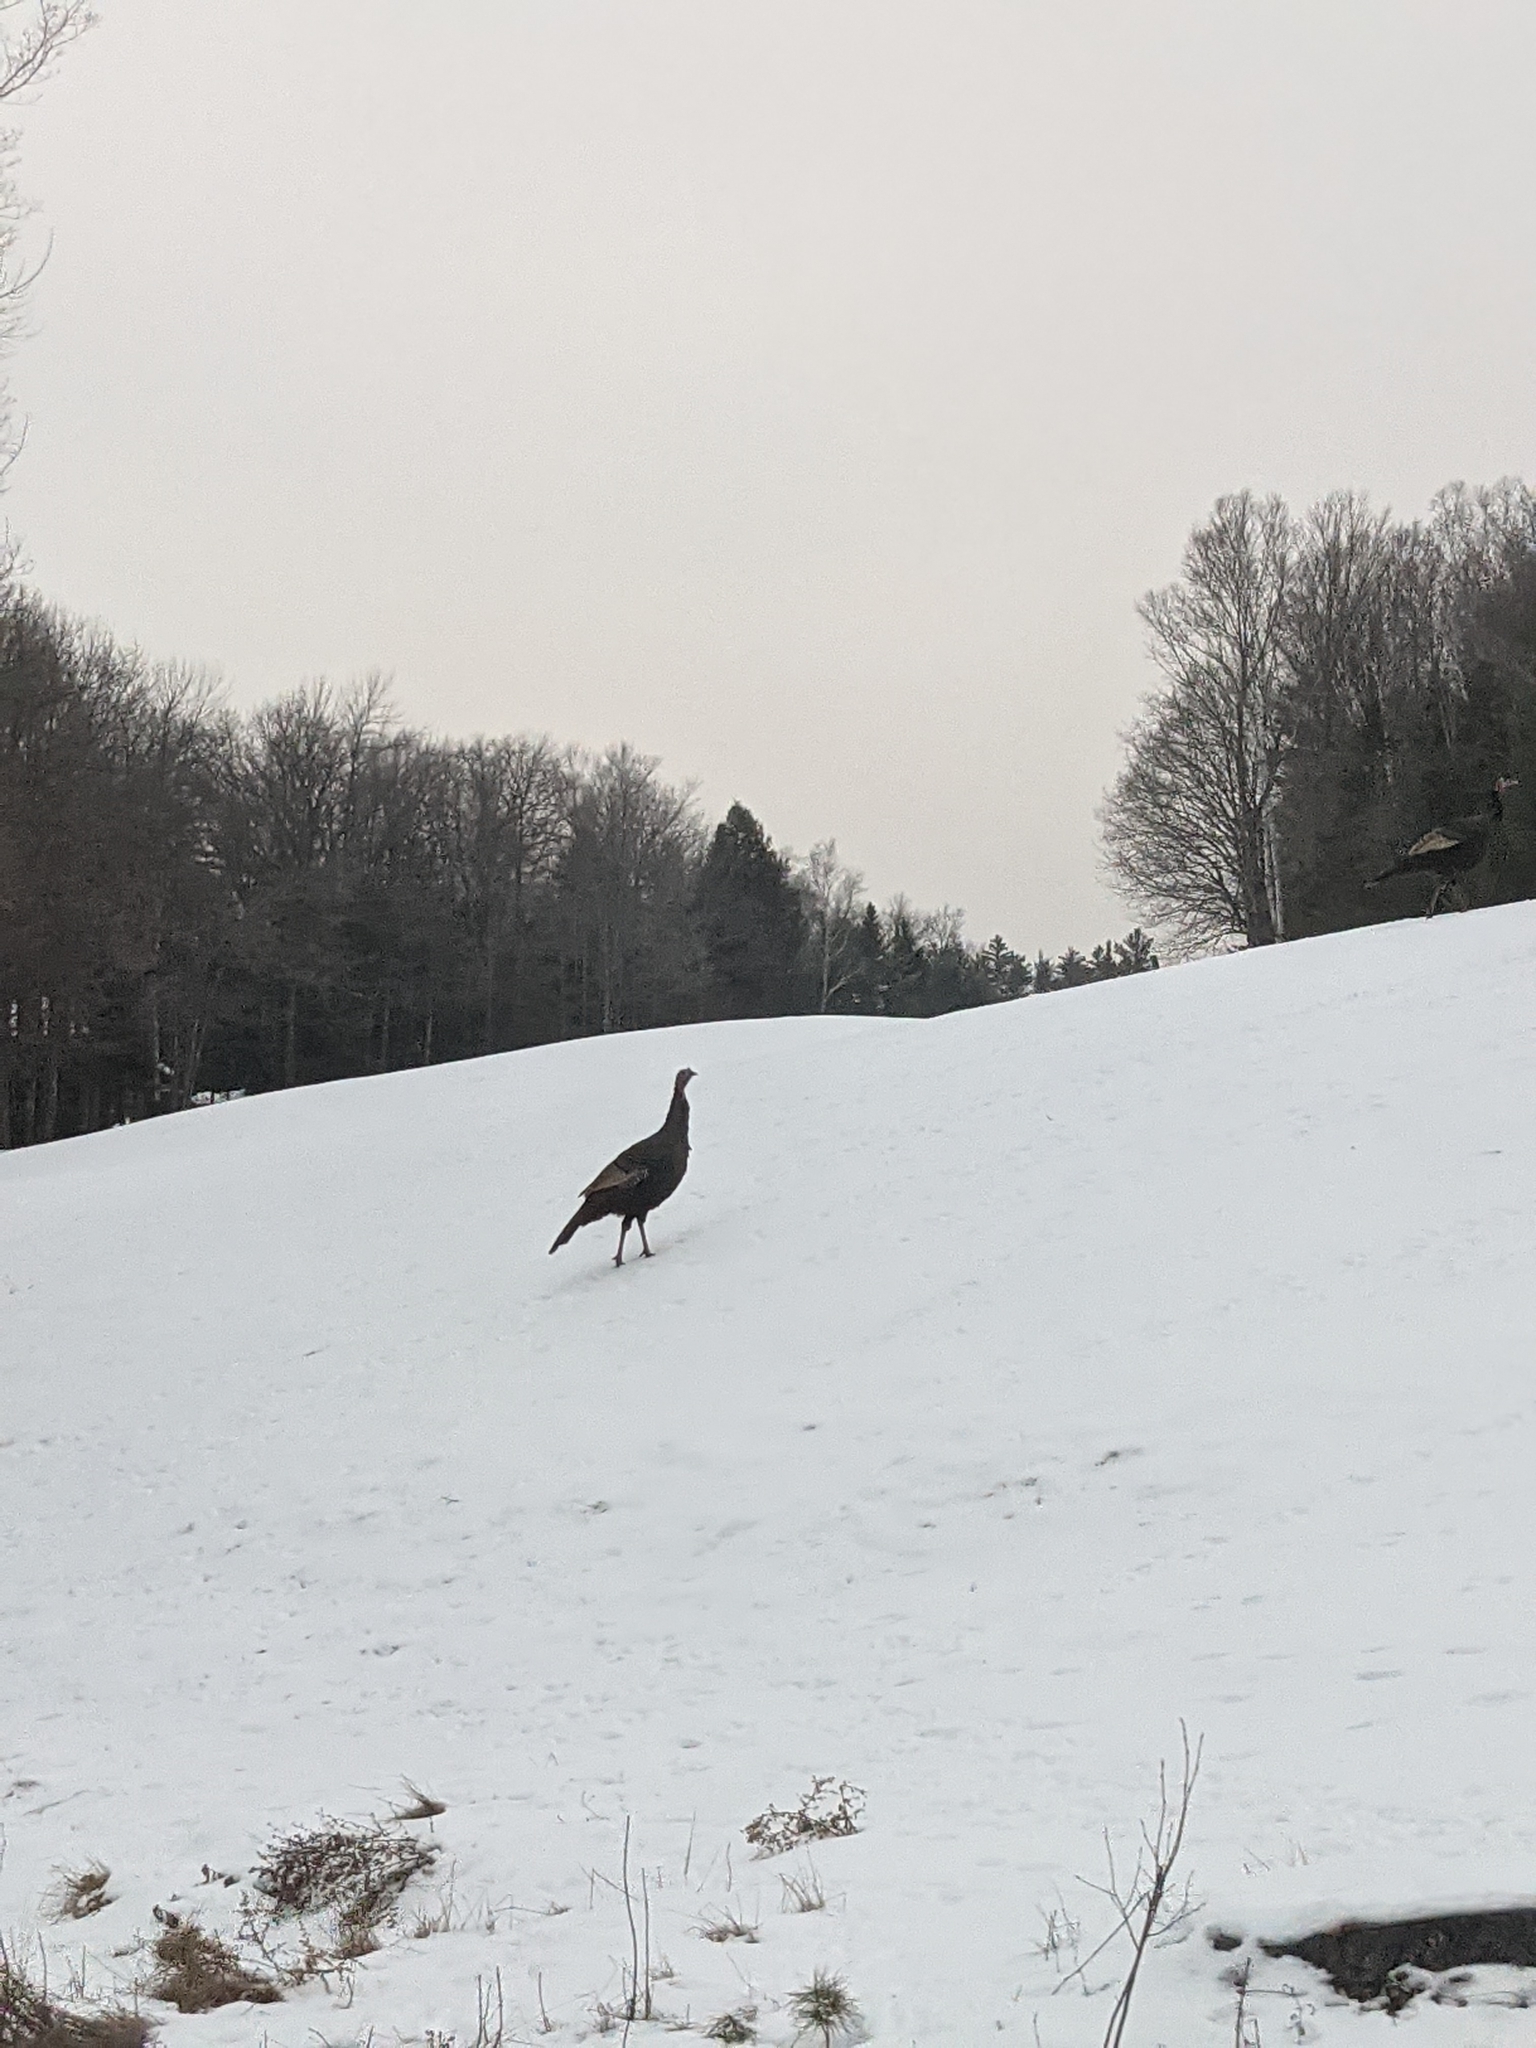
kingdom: Animalia
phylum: Chordata
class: Aves
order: Galliformes
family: Phasianidae
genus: Meleagris
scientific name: Meleagris gallopavo
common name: Wild turkey
